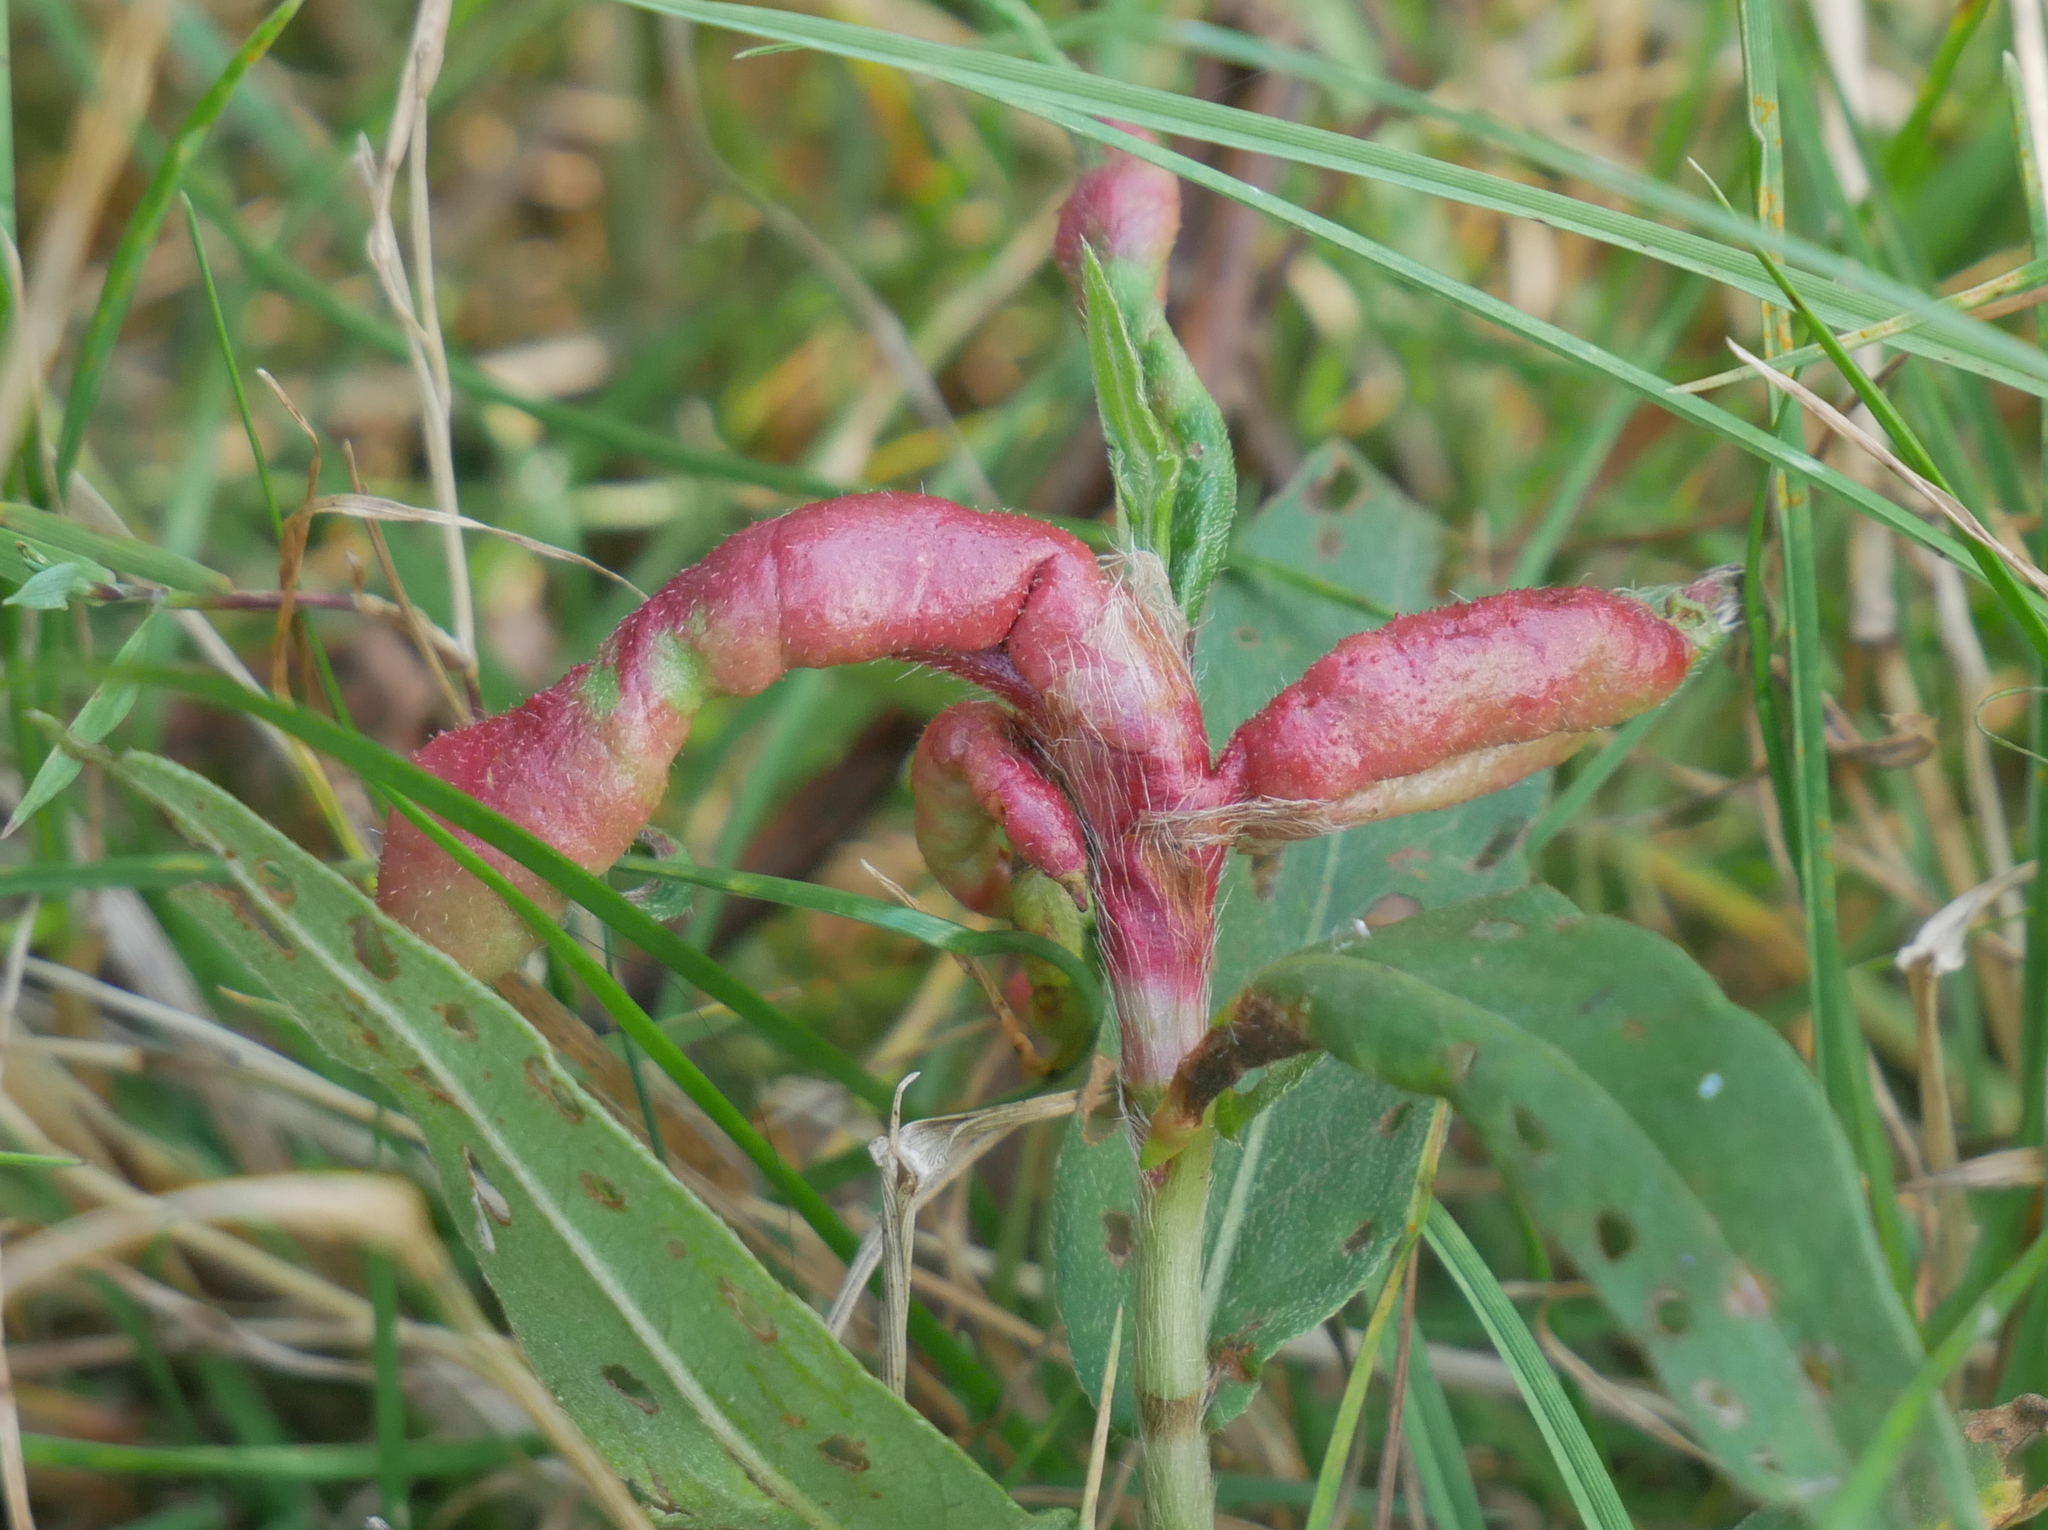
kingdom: Animalia
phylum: Arthropoda
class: Insecta
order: Diptera
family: Cecidomyiidae
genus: Wachtliella
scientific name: Wachtliella persicariae
